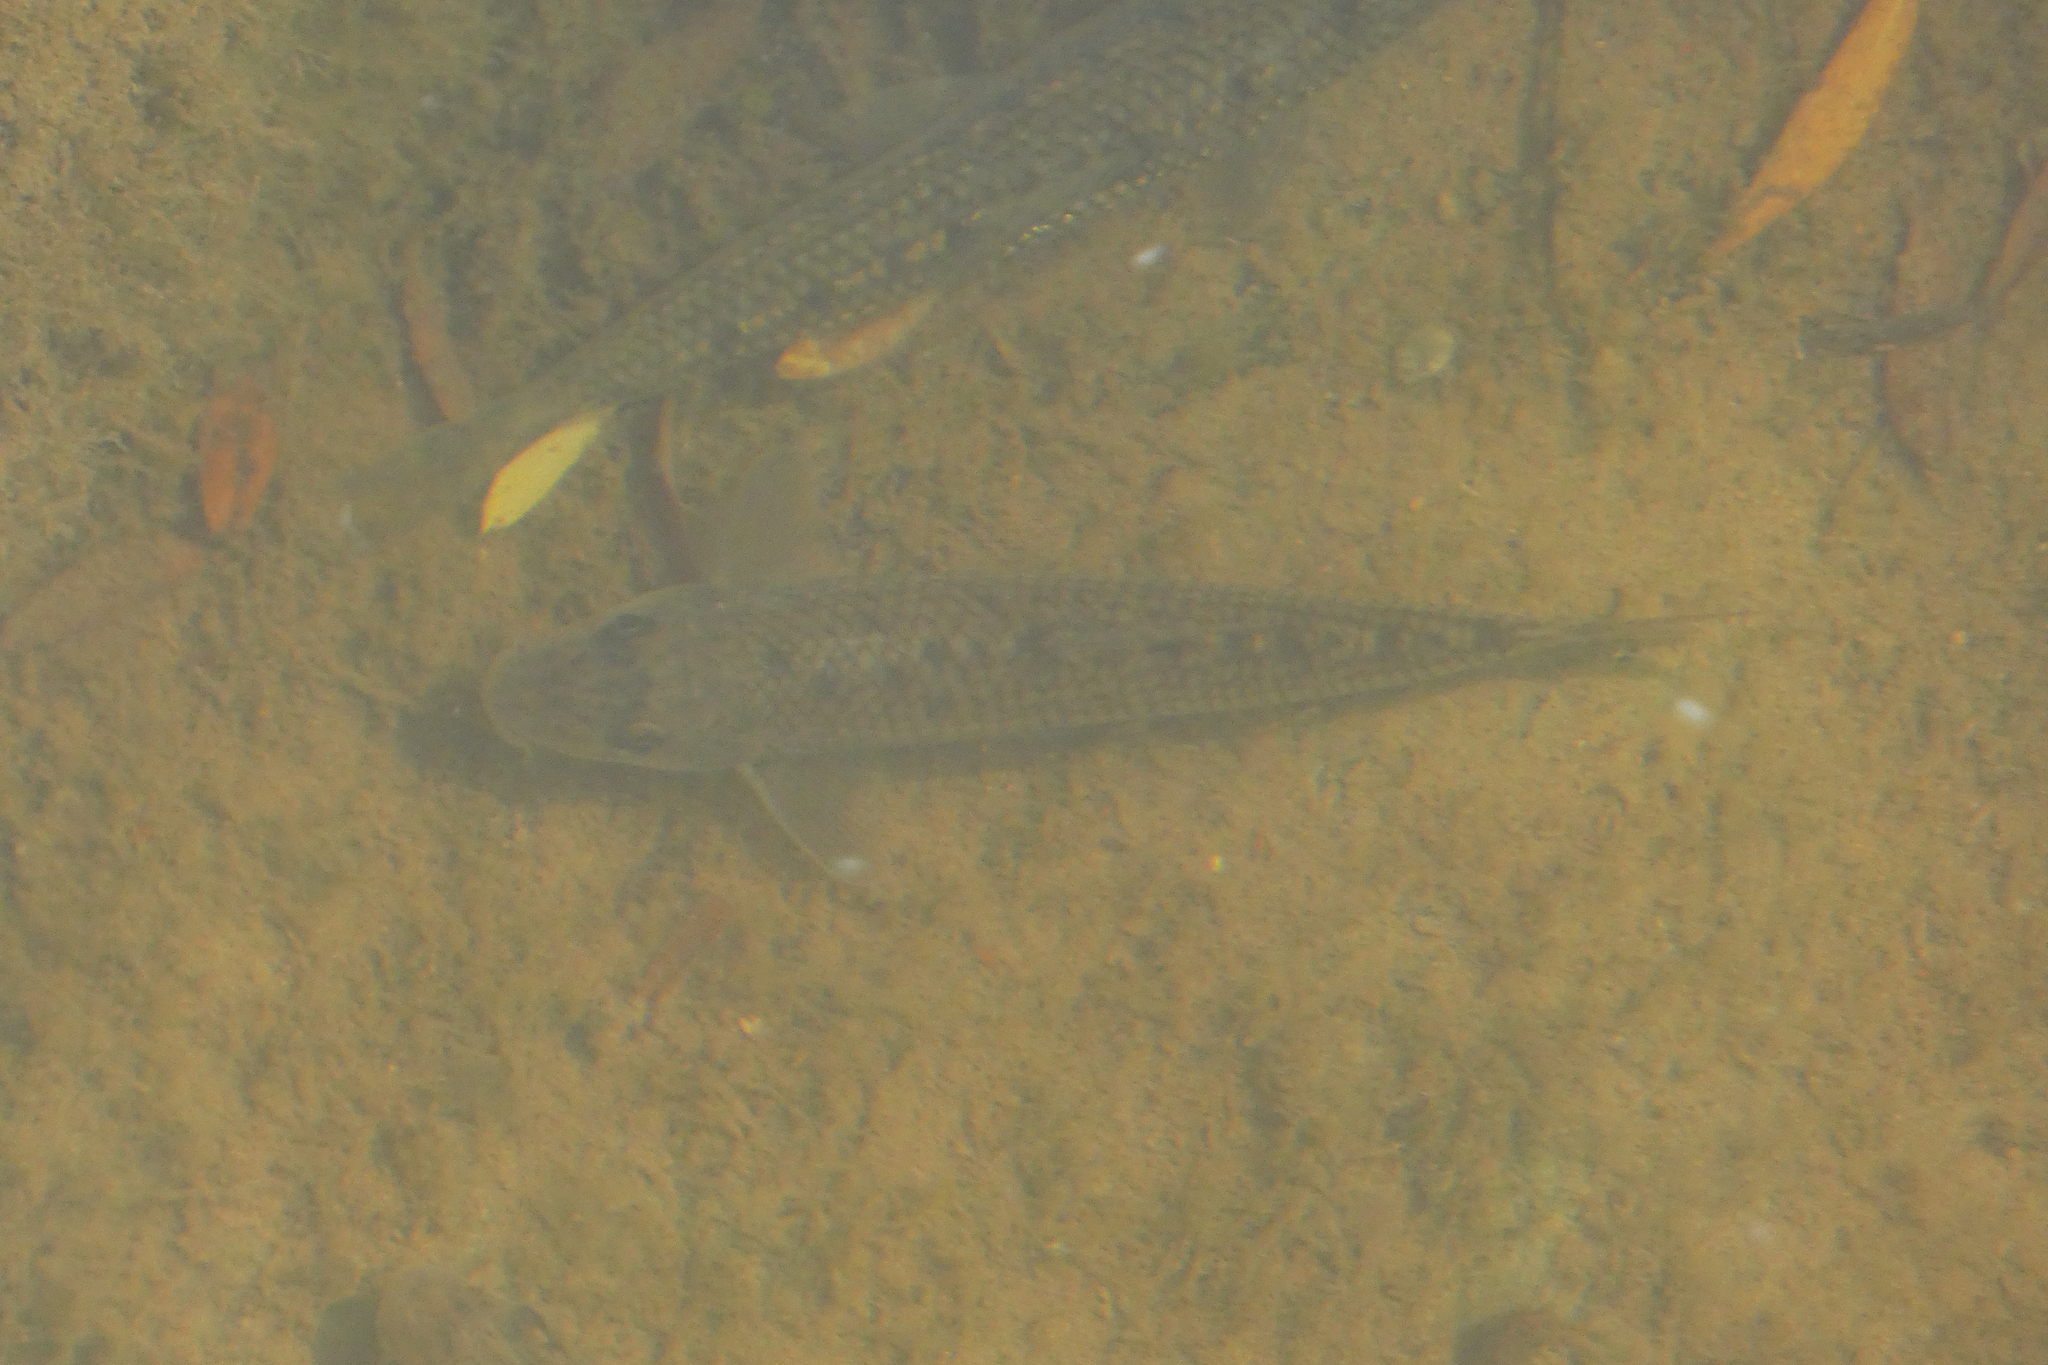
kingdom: Animalia
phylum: Chordata
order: Cypriniformes
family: Cyprinidae
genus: Gobio
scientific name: Gobio gobio
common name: Gudgeon
